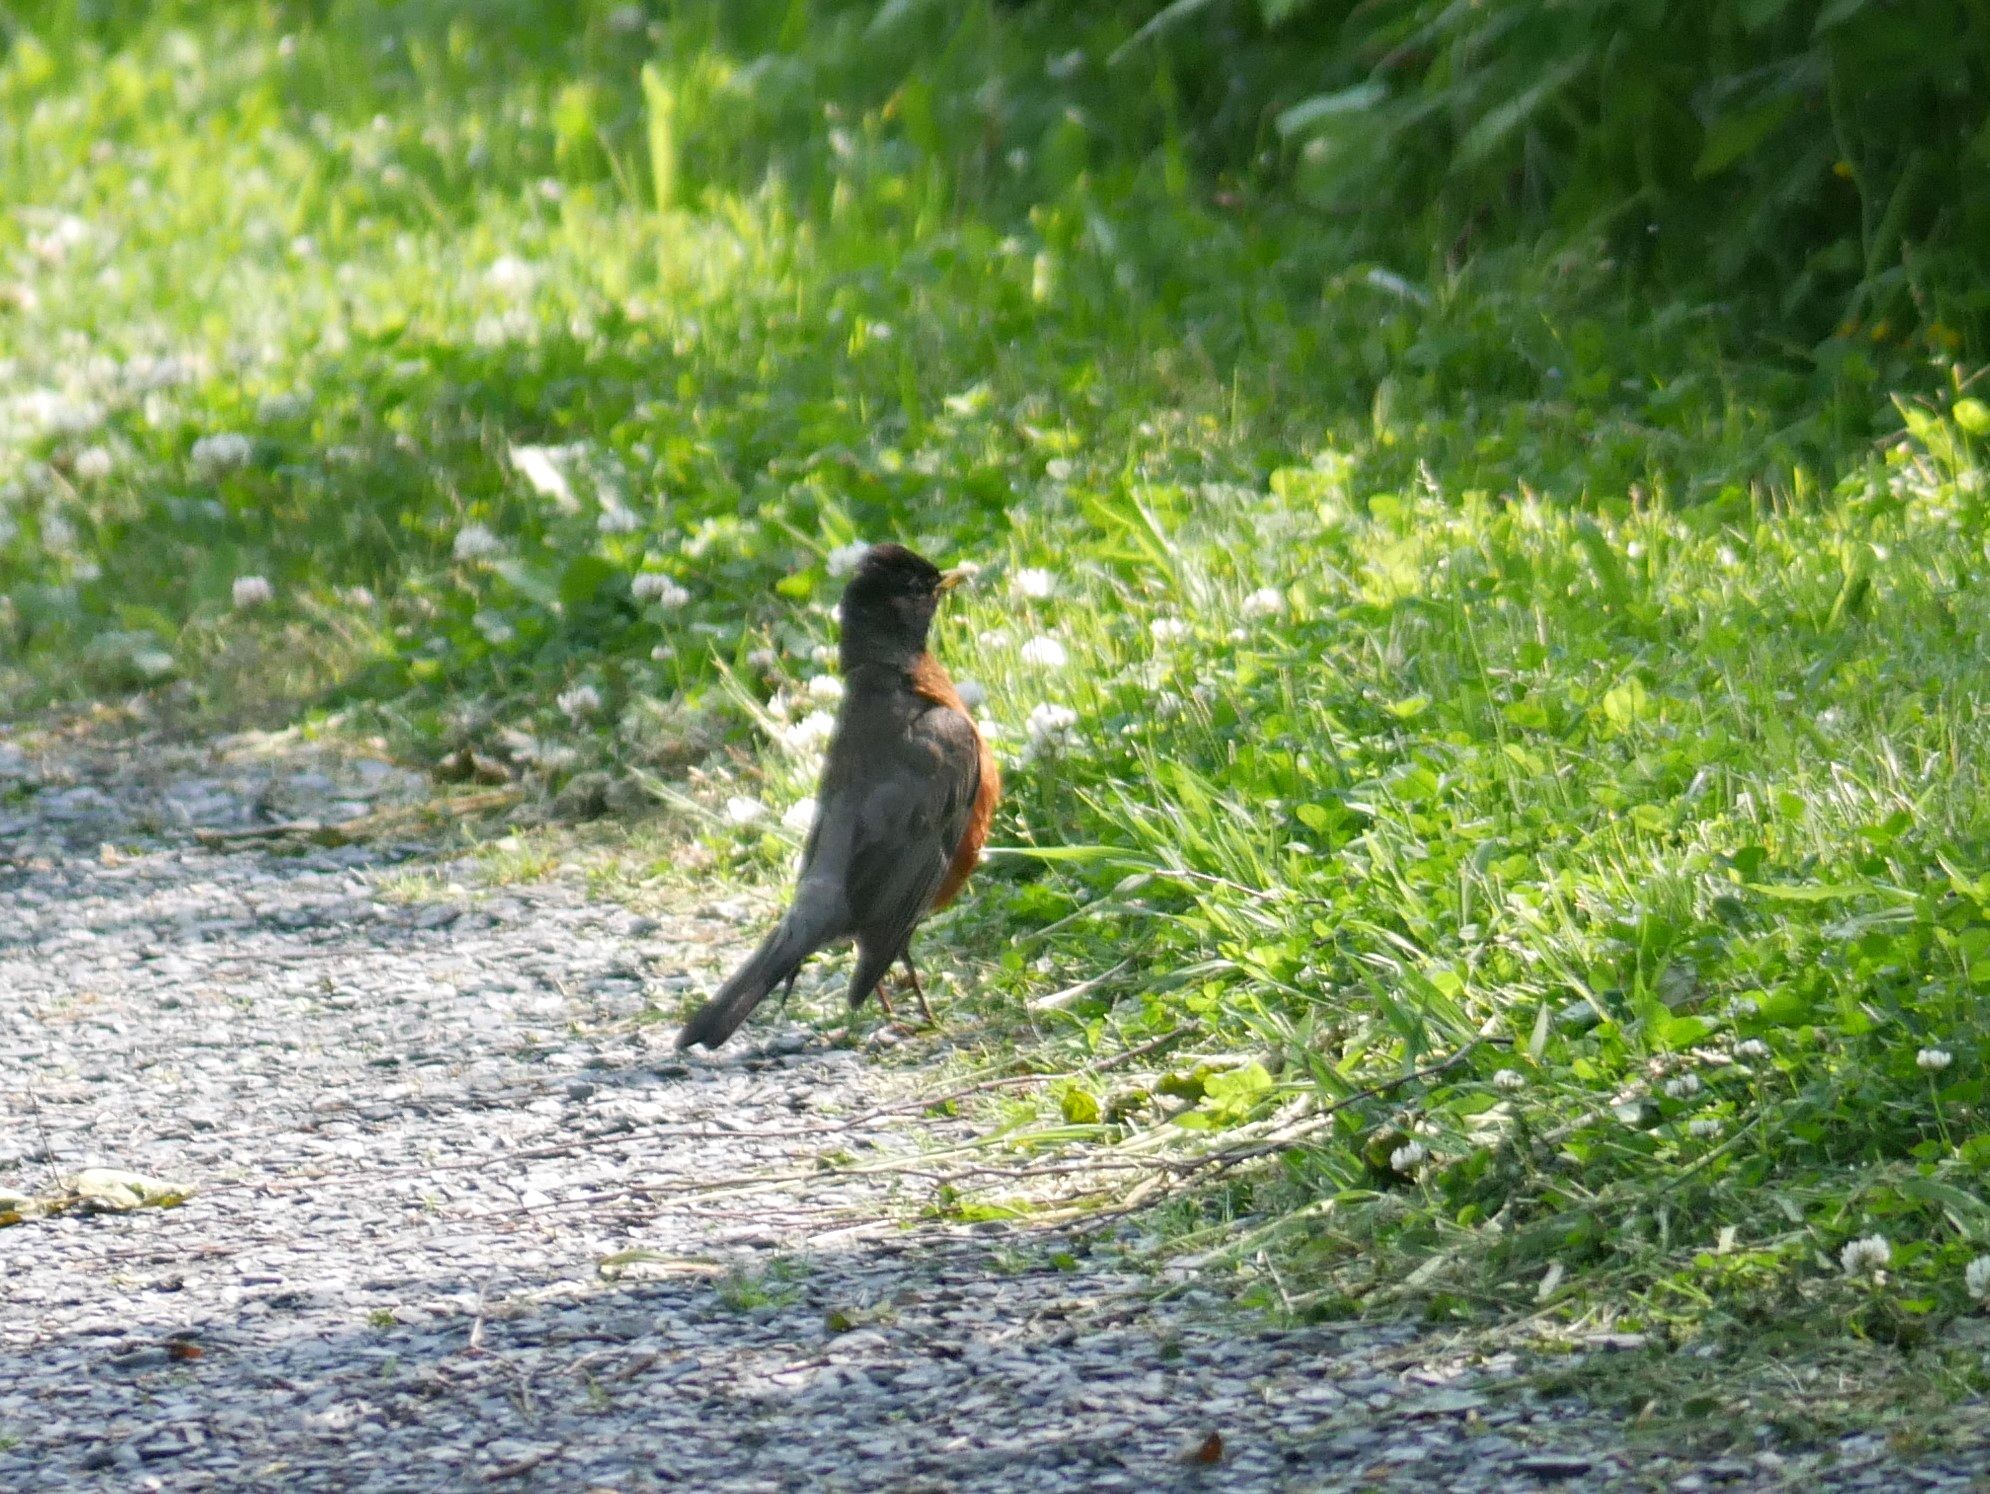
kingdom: Animalia
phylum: Chordata
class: Aves
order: Passeriformes
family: Turdidae
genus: Turdus
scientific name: Turdus migratorius
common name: American robin
